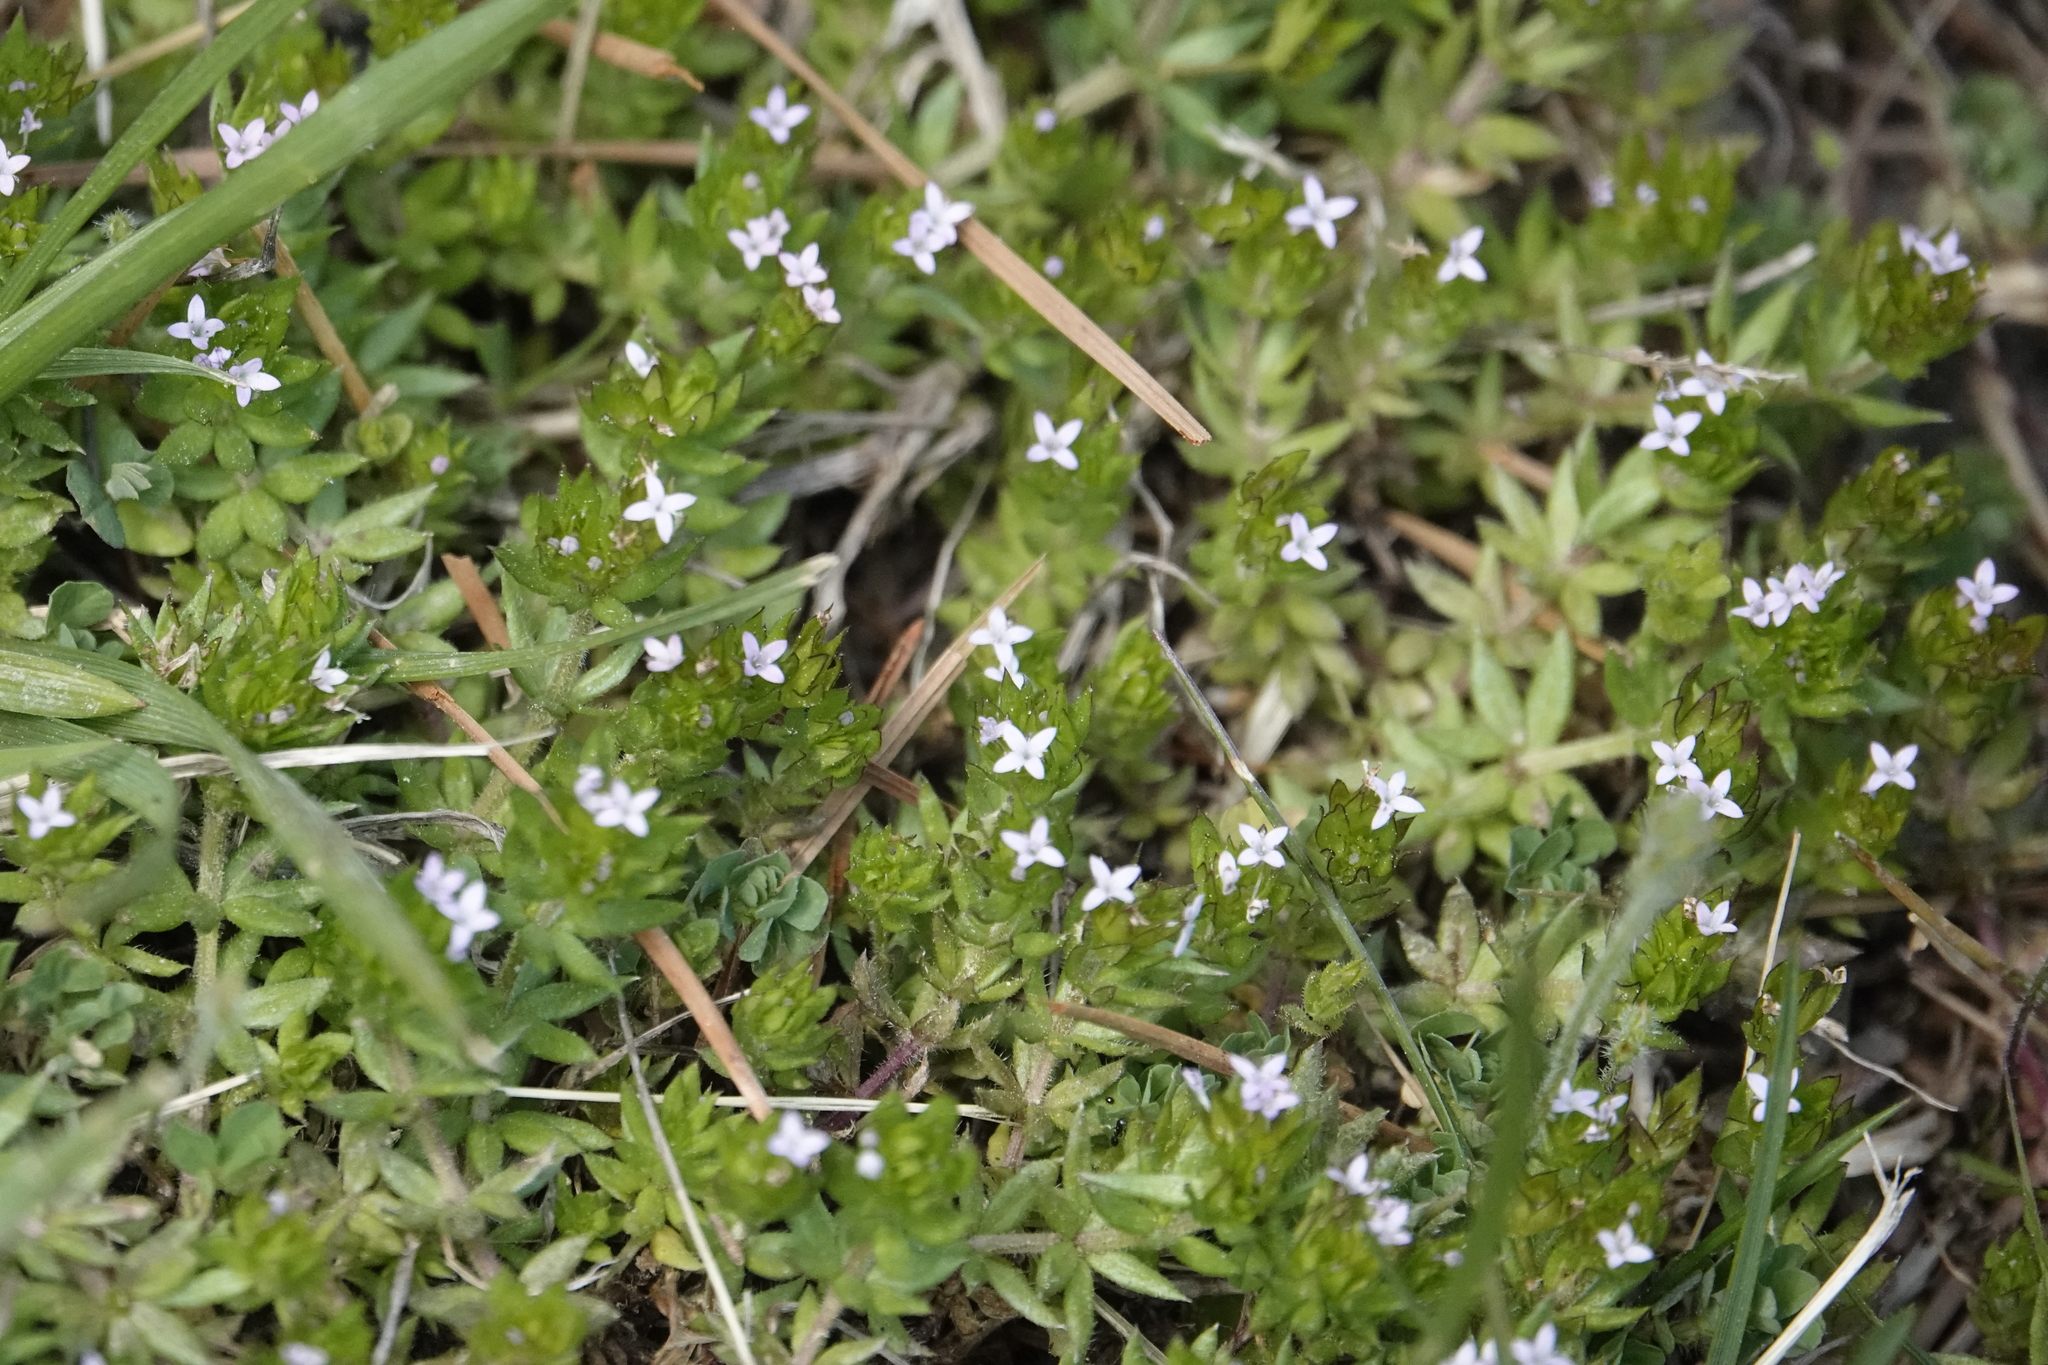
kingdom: Plantae
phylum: Tracheophyta
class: Magnoliopsida
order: Gentianales
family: Rubiaceae
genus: Sherardia
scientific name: Sherardia arvensis
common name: Field madder
